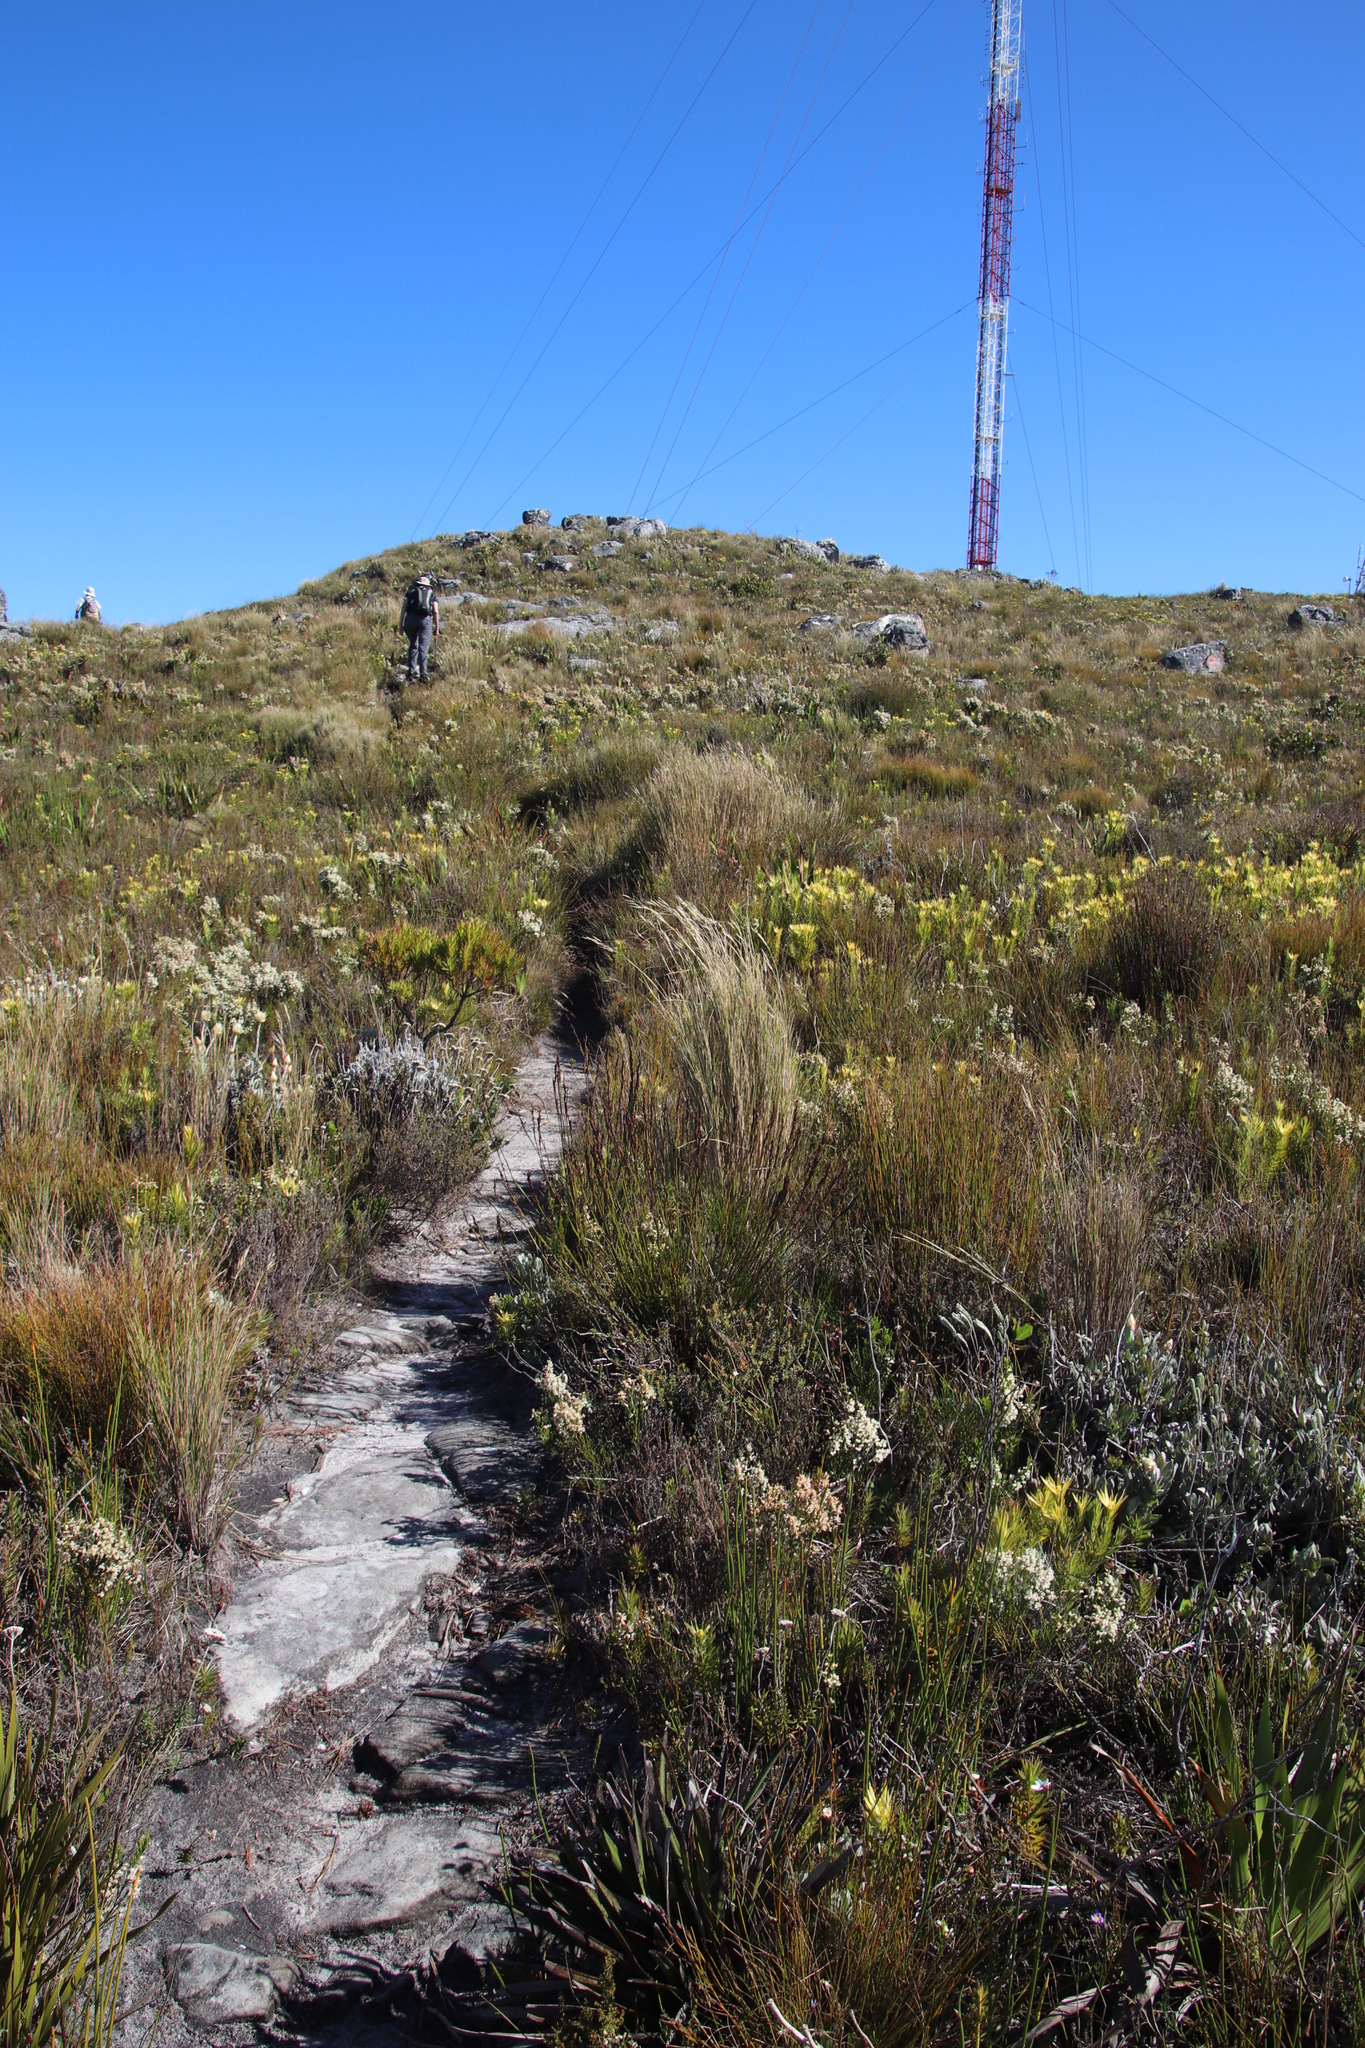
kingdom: Plantae
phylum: Tracheophyta
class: Liliopsida
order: Poales
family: Poaceae
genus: Pentameris
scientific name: Pentameris macrocalycina
